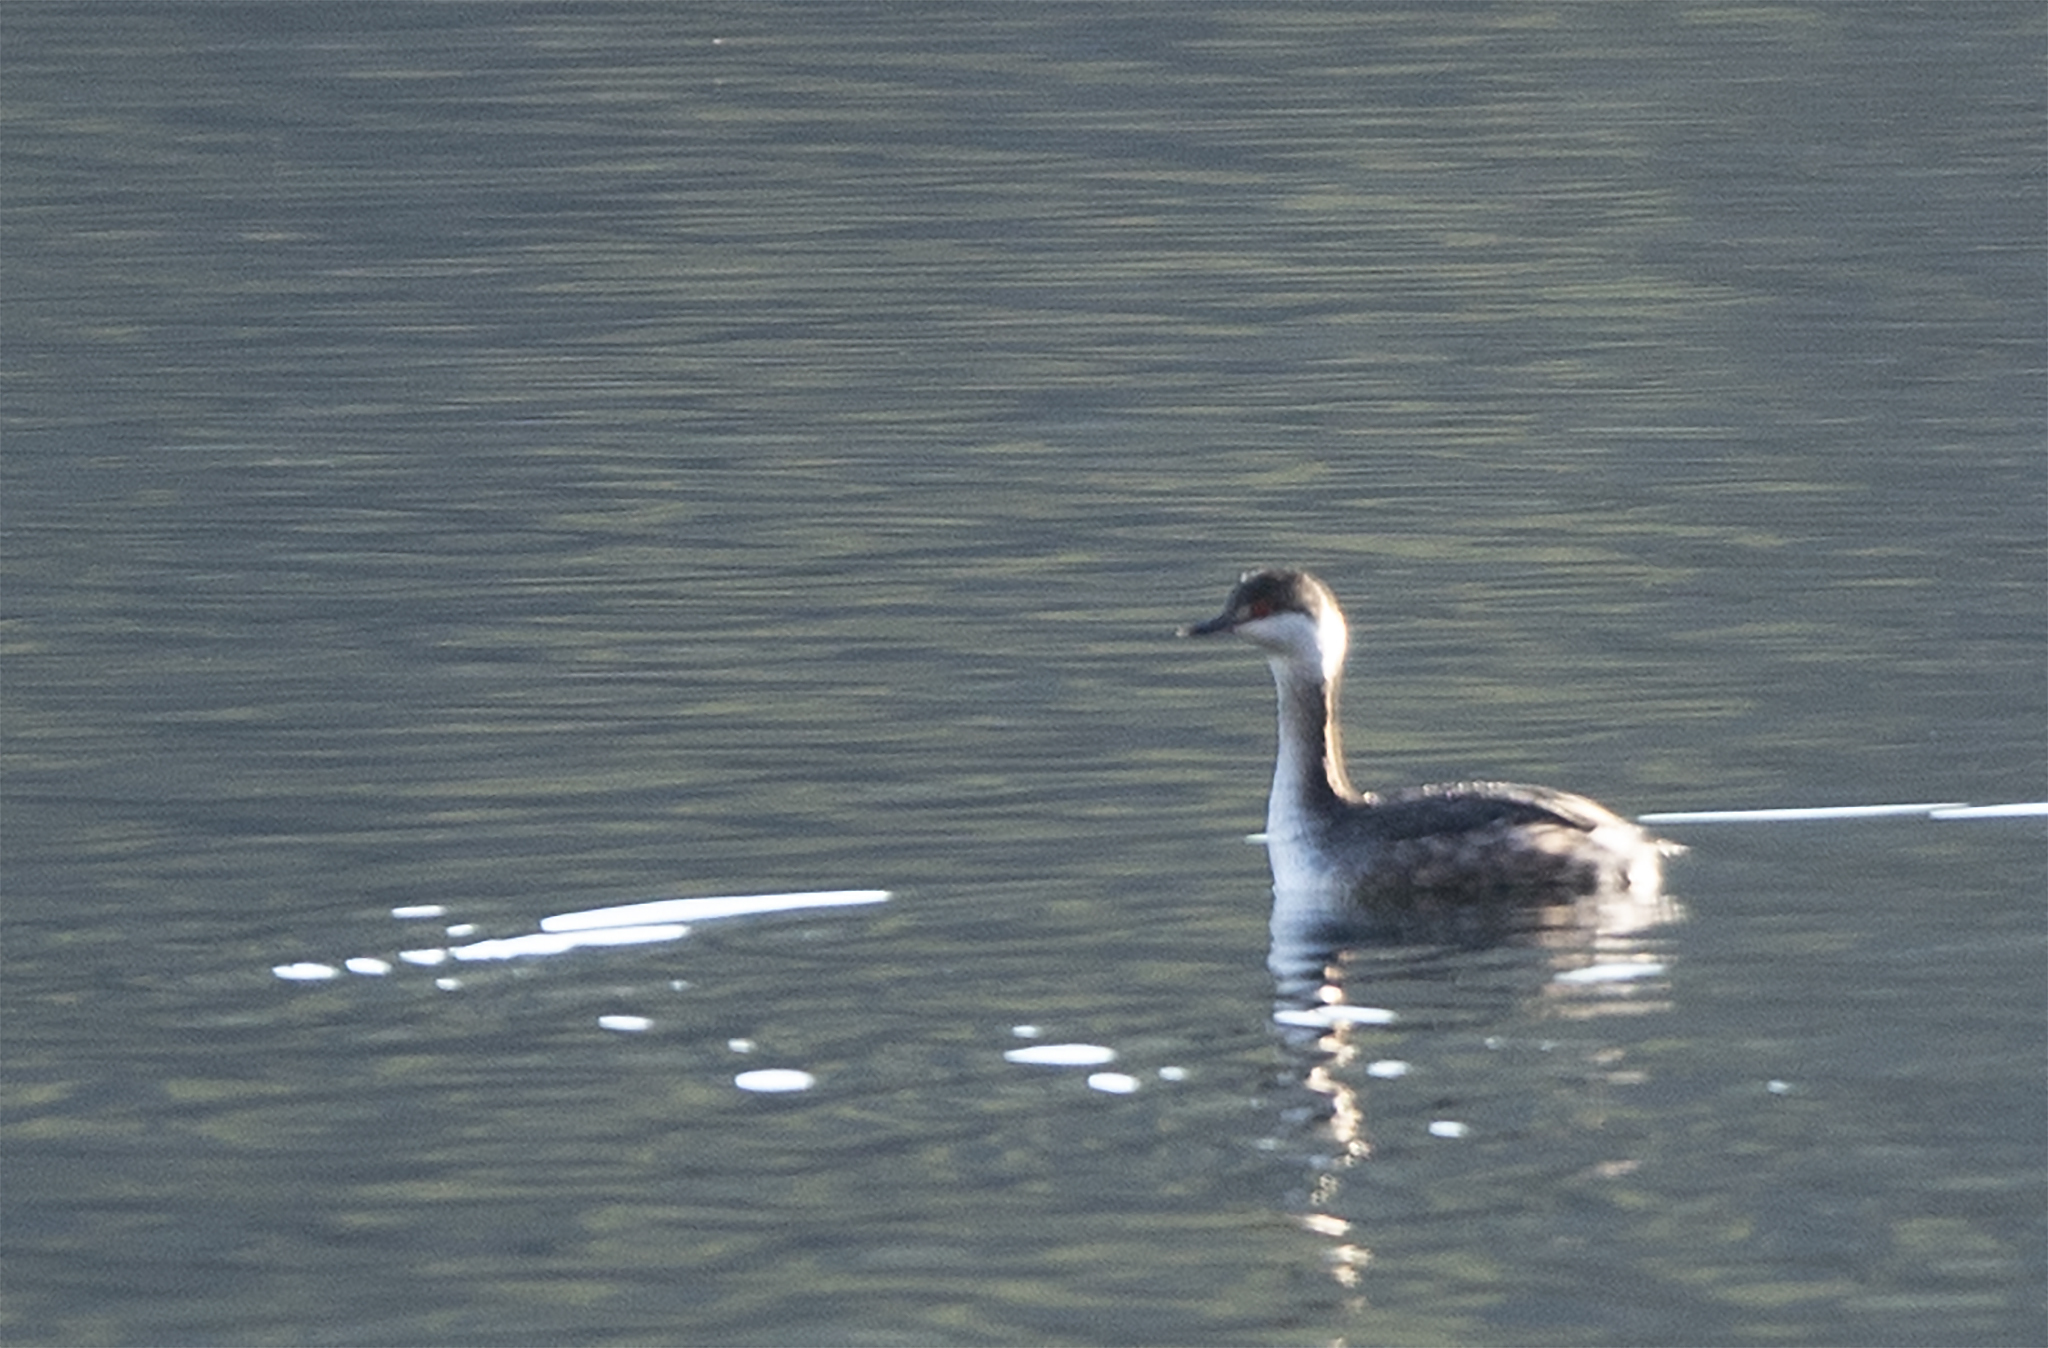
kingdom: Animalia
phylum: Chordata
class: Aves
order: Podicipediformes
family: Podicipedidae
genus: Podiceps
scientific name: Podiceps auritus
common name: Horned grebe
